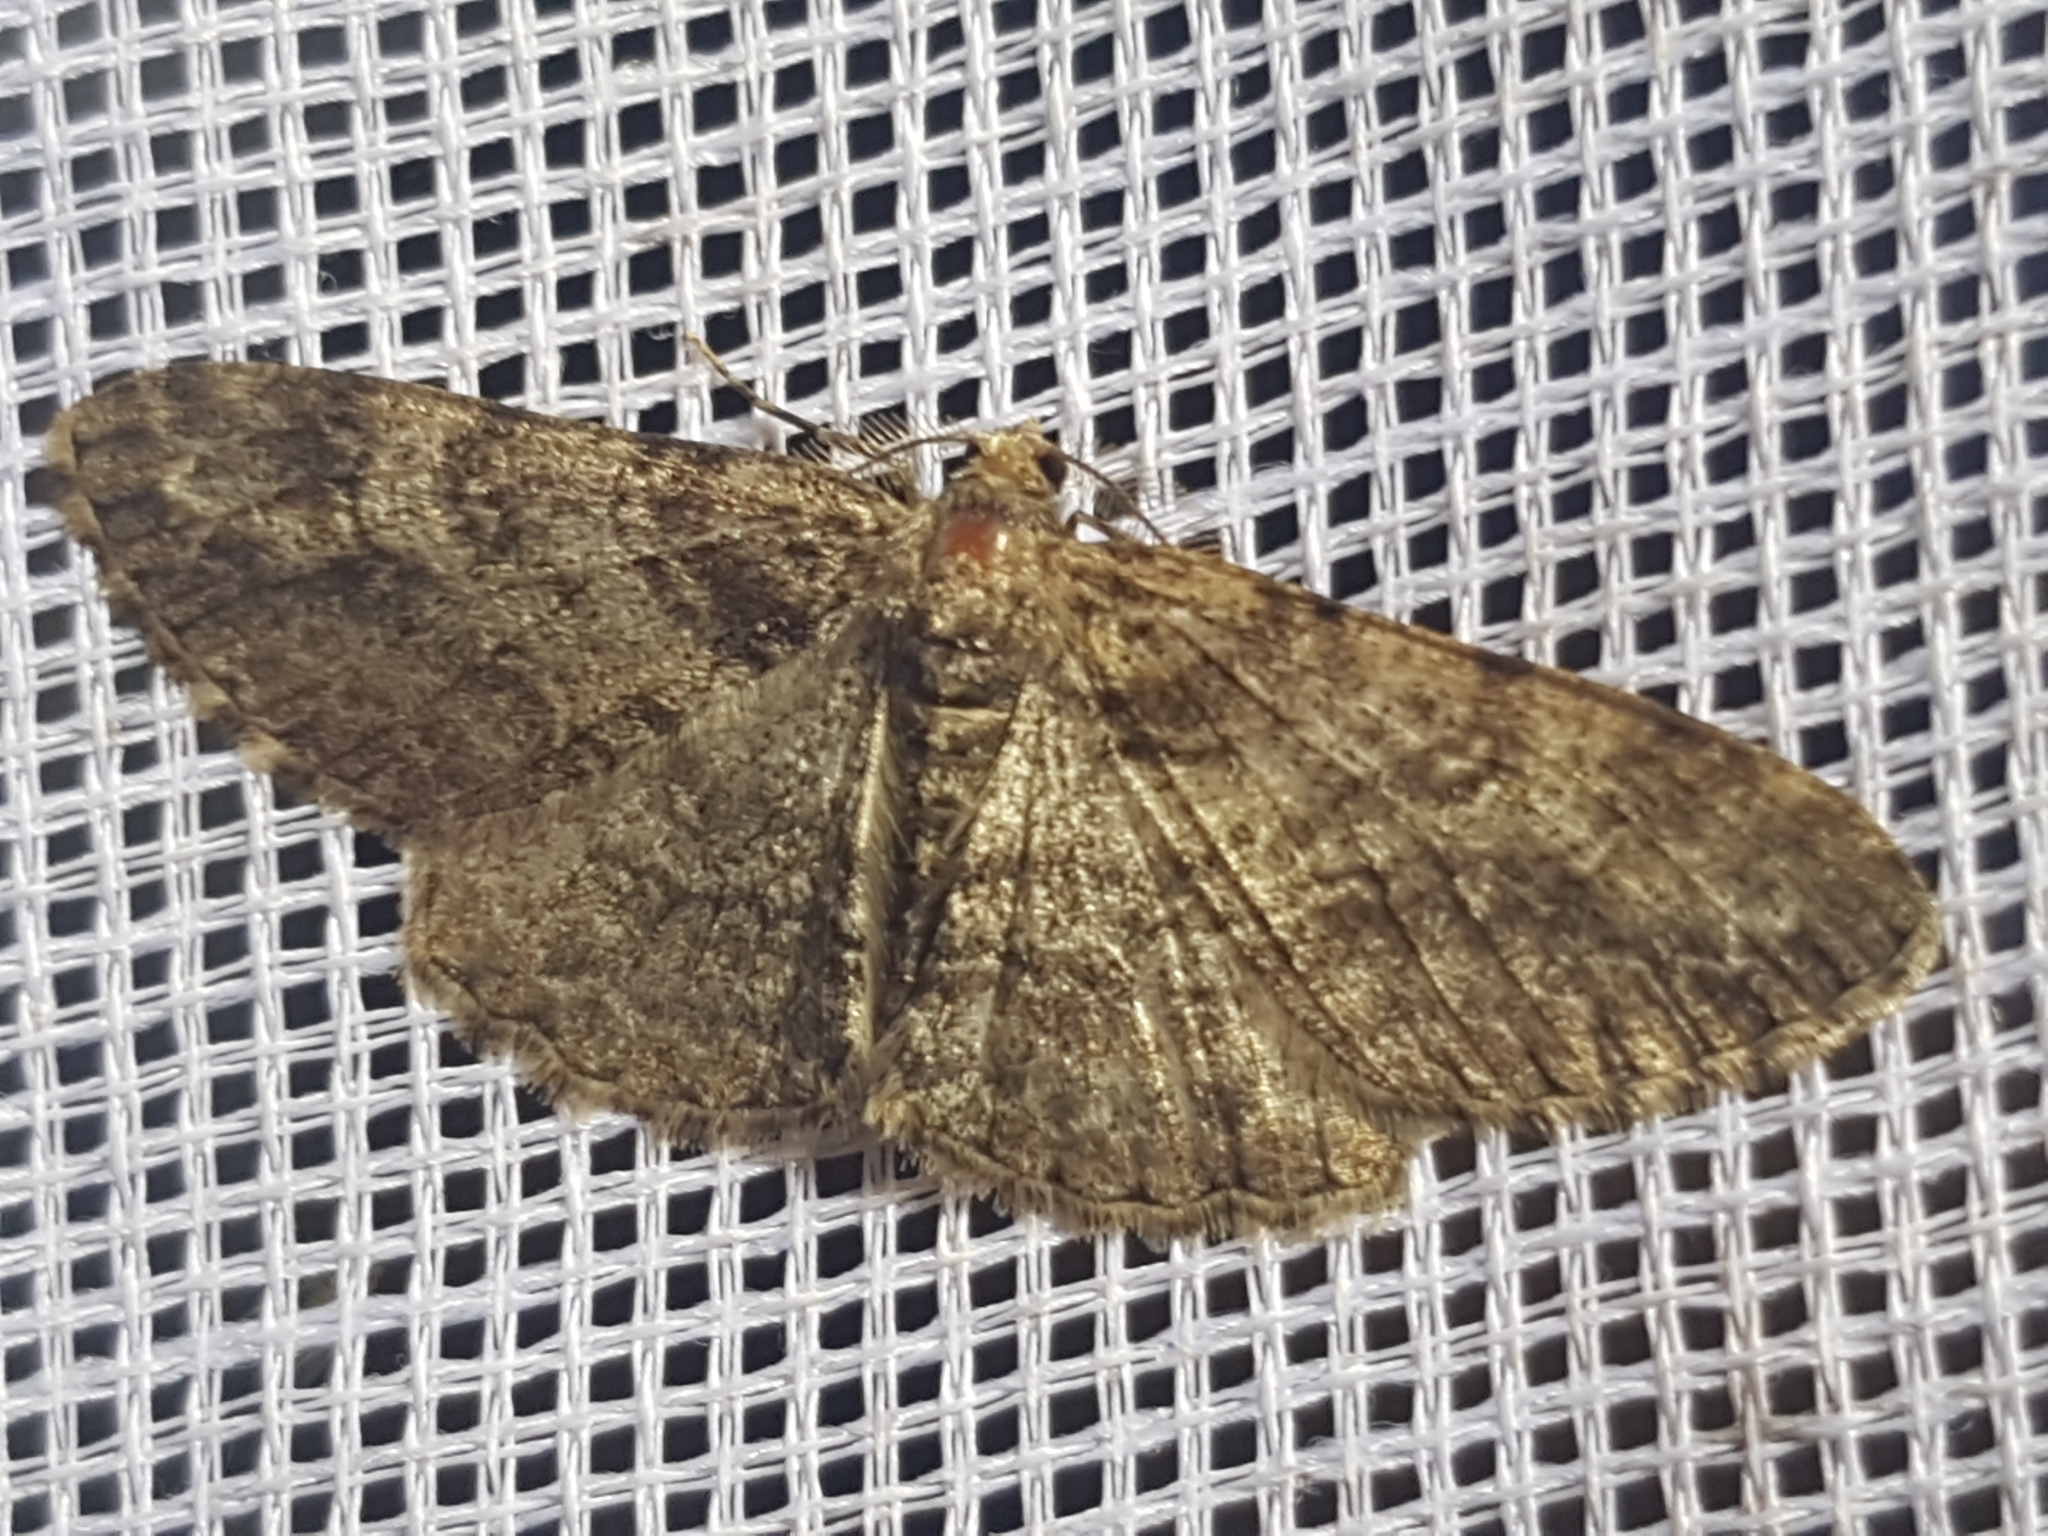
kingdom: Animalia
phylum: Arthropoda
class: Insecta
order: Lepidoptera
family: Geometridae
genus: Cleora
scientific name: Cleora cinctaria
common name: Ringed carpet
